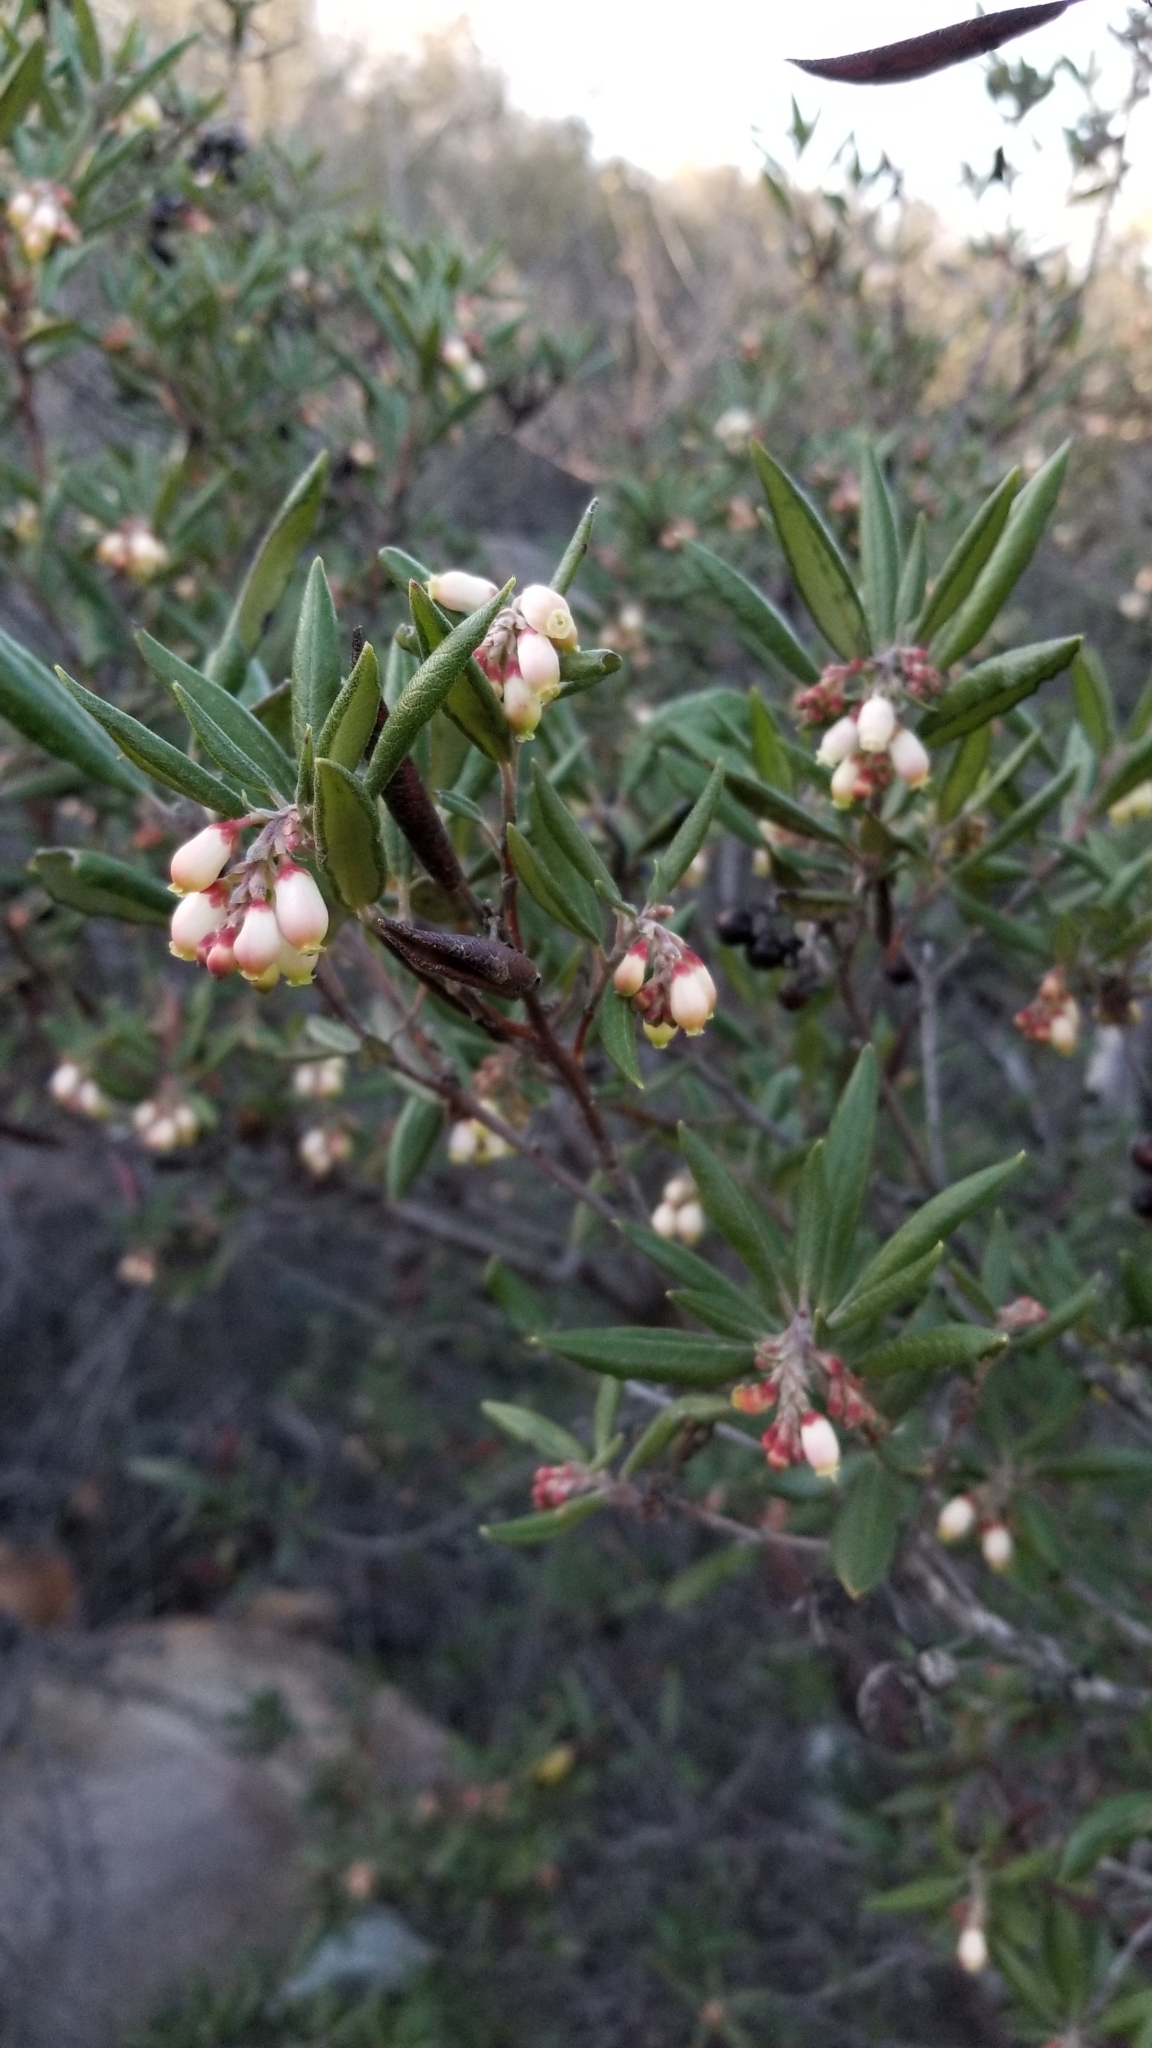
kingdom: Plantae
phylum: Tracheophyta
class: Magnoliopsida
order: Ericales
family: Ericaceae
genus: Arctostaphylos
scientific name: Arctostaphylos bicolor
